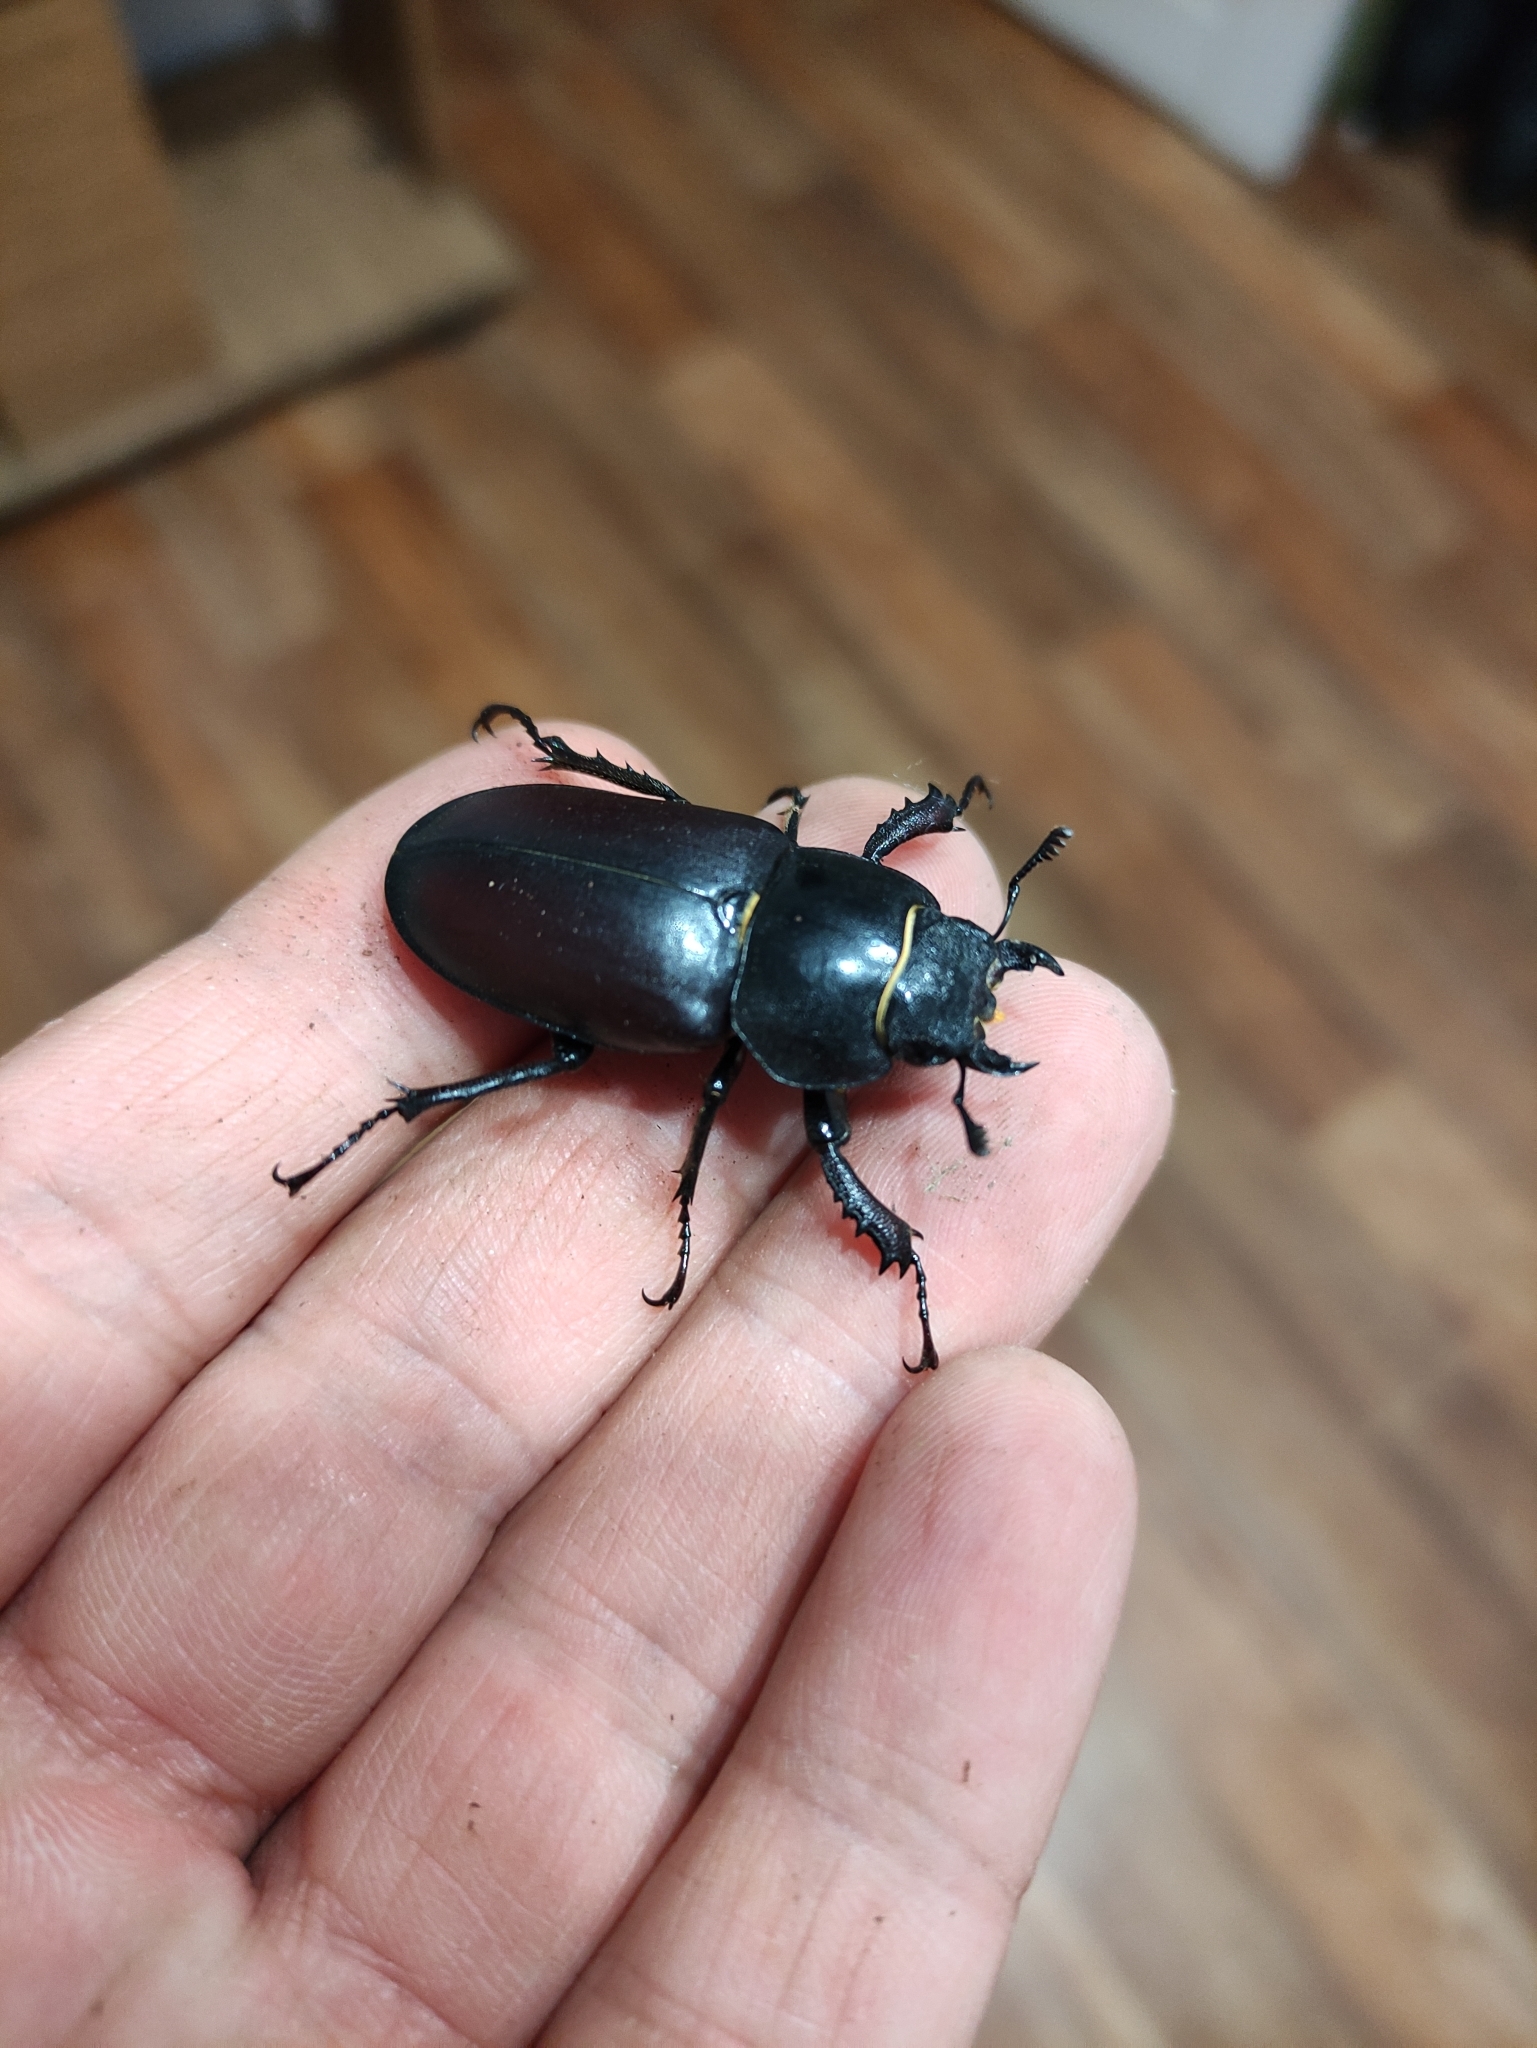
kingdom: Animalia
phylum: Arthropoda
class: Insecta
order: Coleoptera
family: Lucanidae
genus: Lucanus
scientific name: Lucanus cervus
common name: Stag beetle
